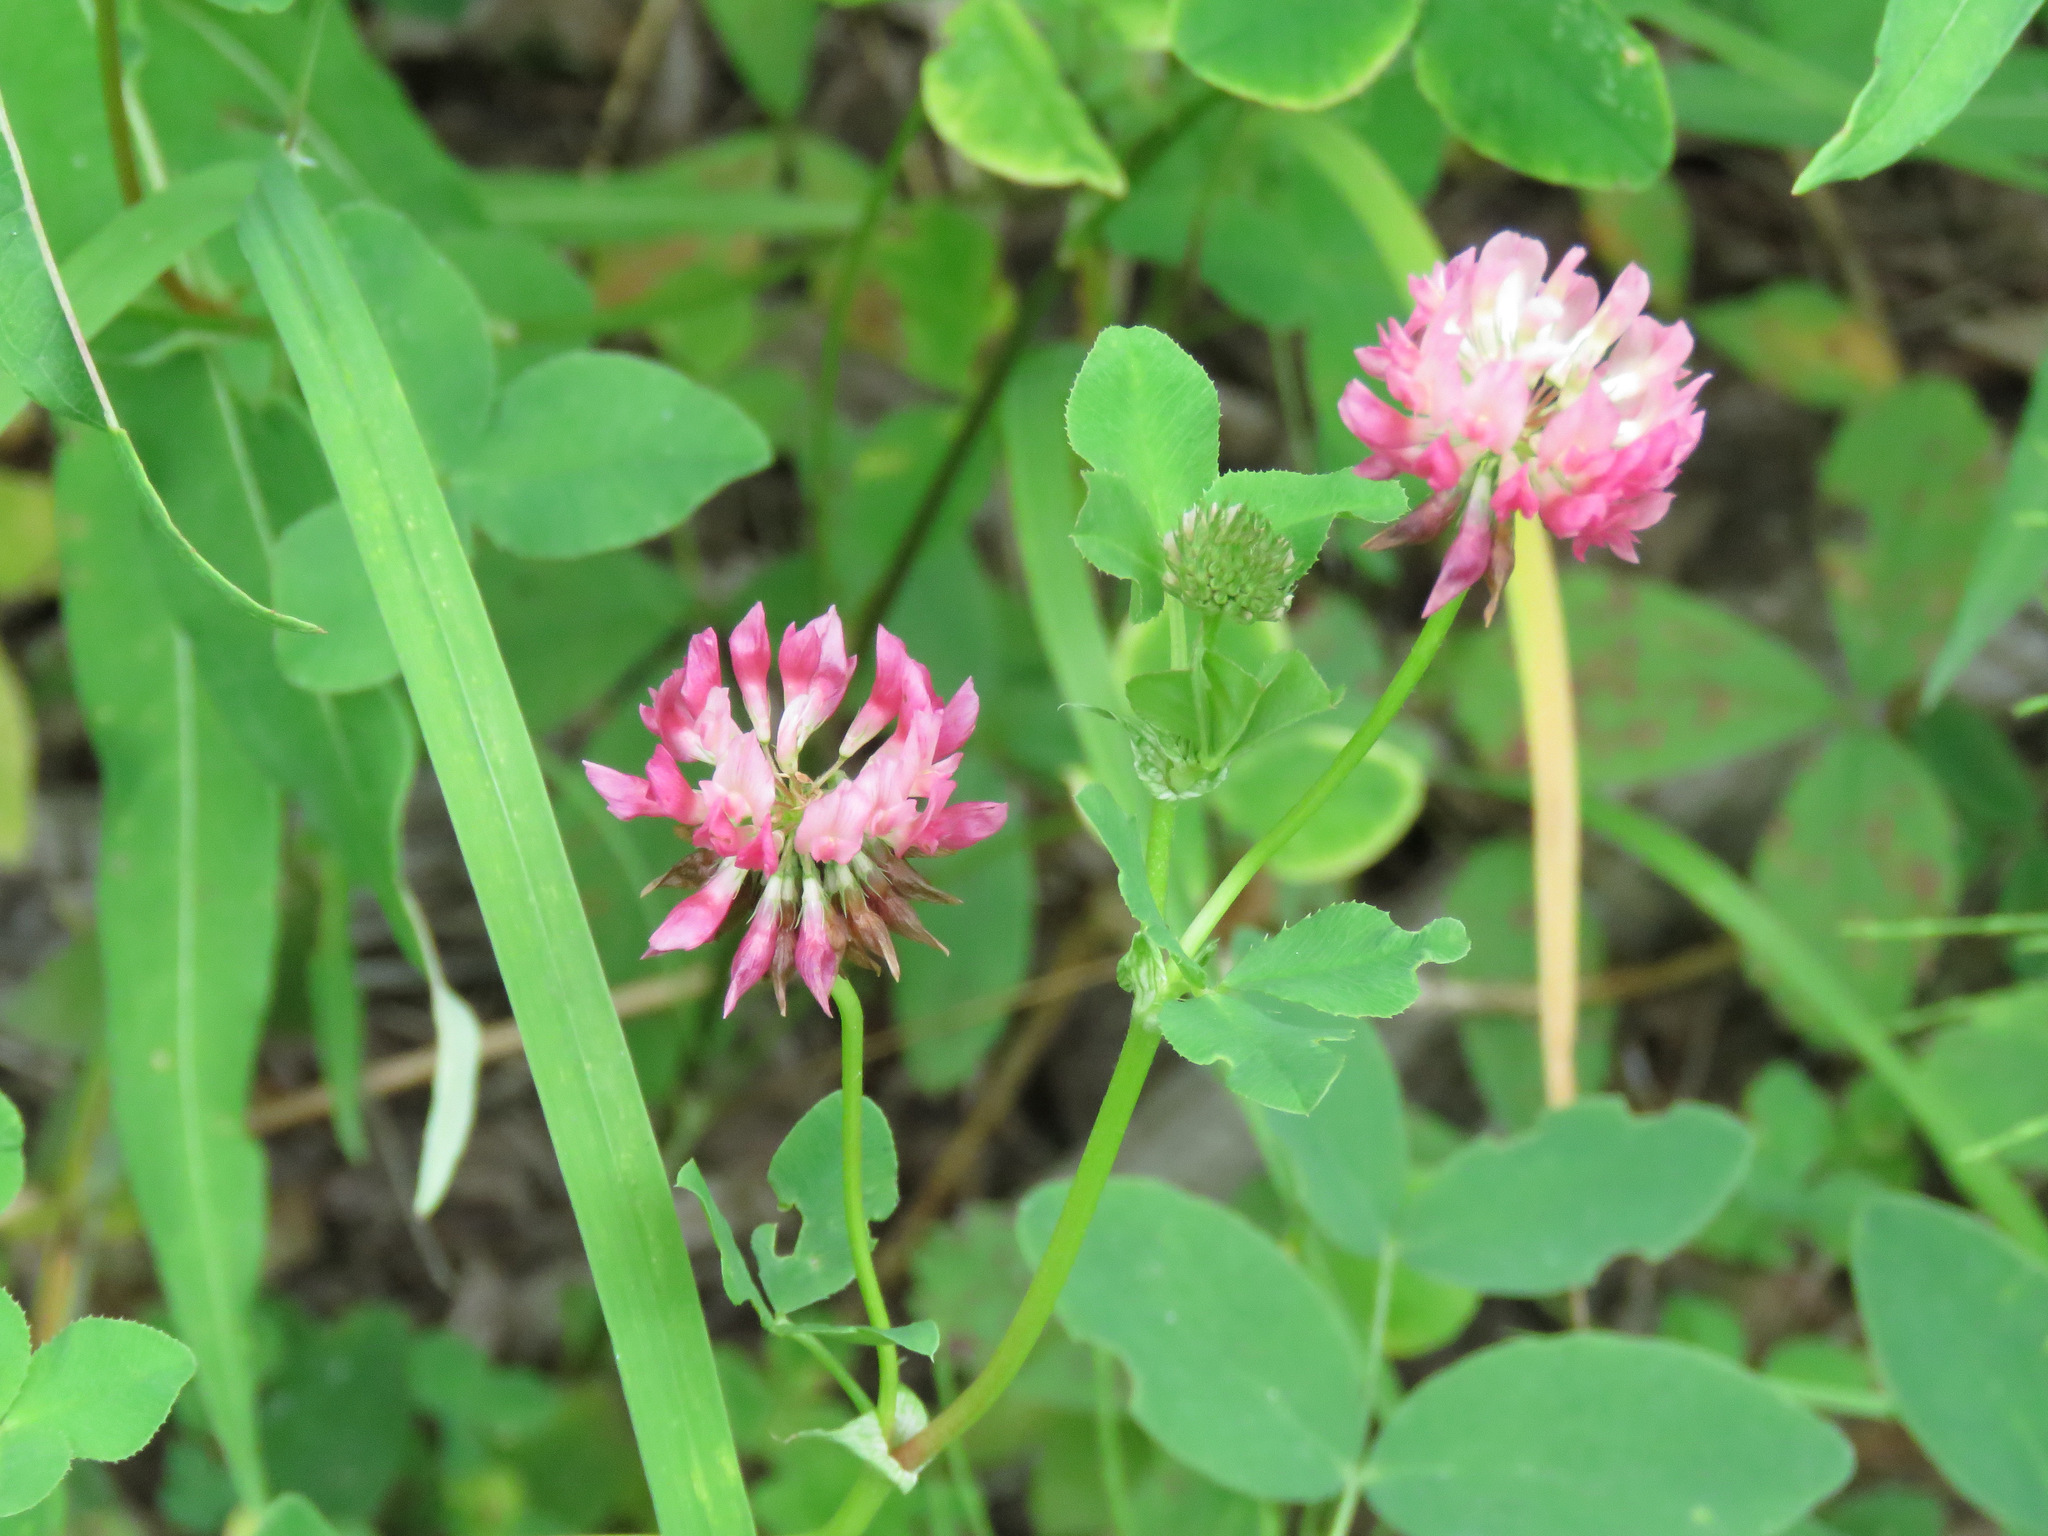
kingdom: Plantae
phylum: Tracheophyta
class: Magnoliopsida
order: Fabales
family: Fabaceae
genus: Trifolium
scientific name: Trifolium hybridum
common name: Alsike clover
